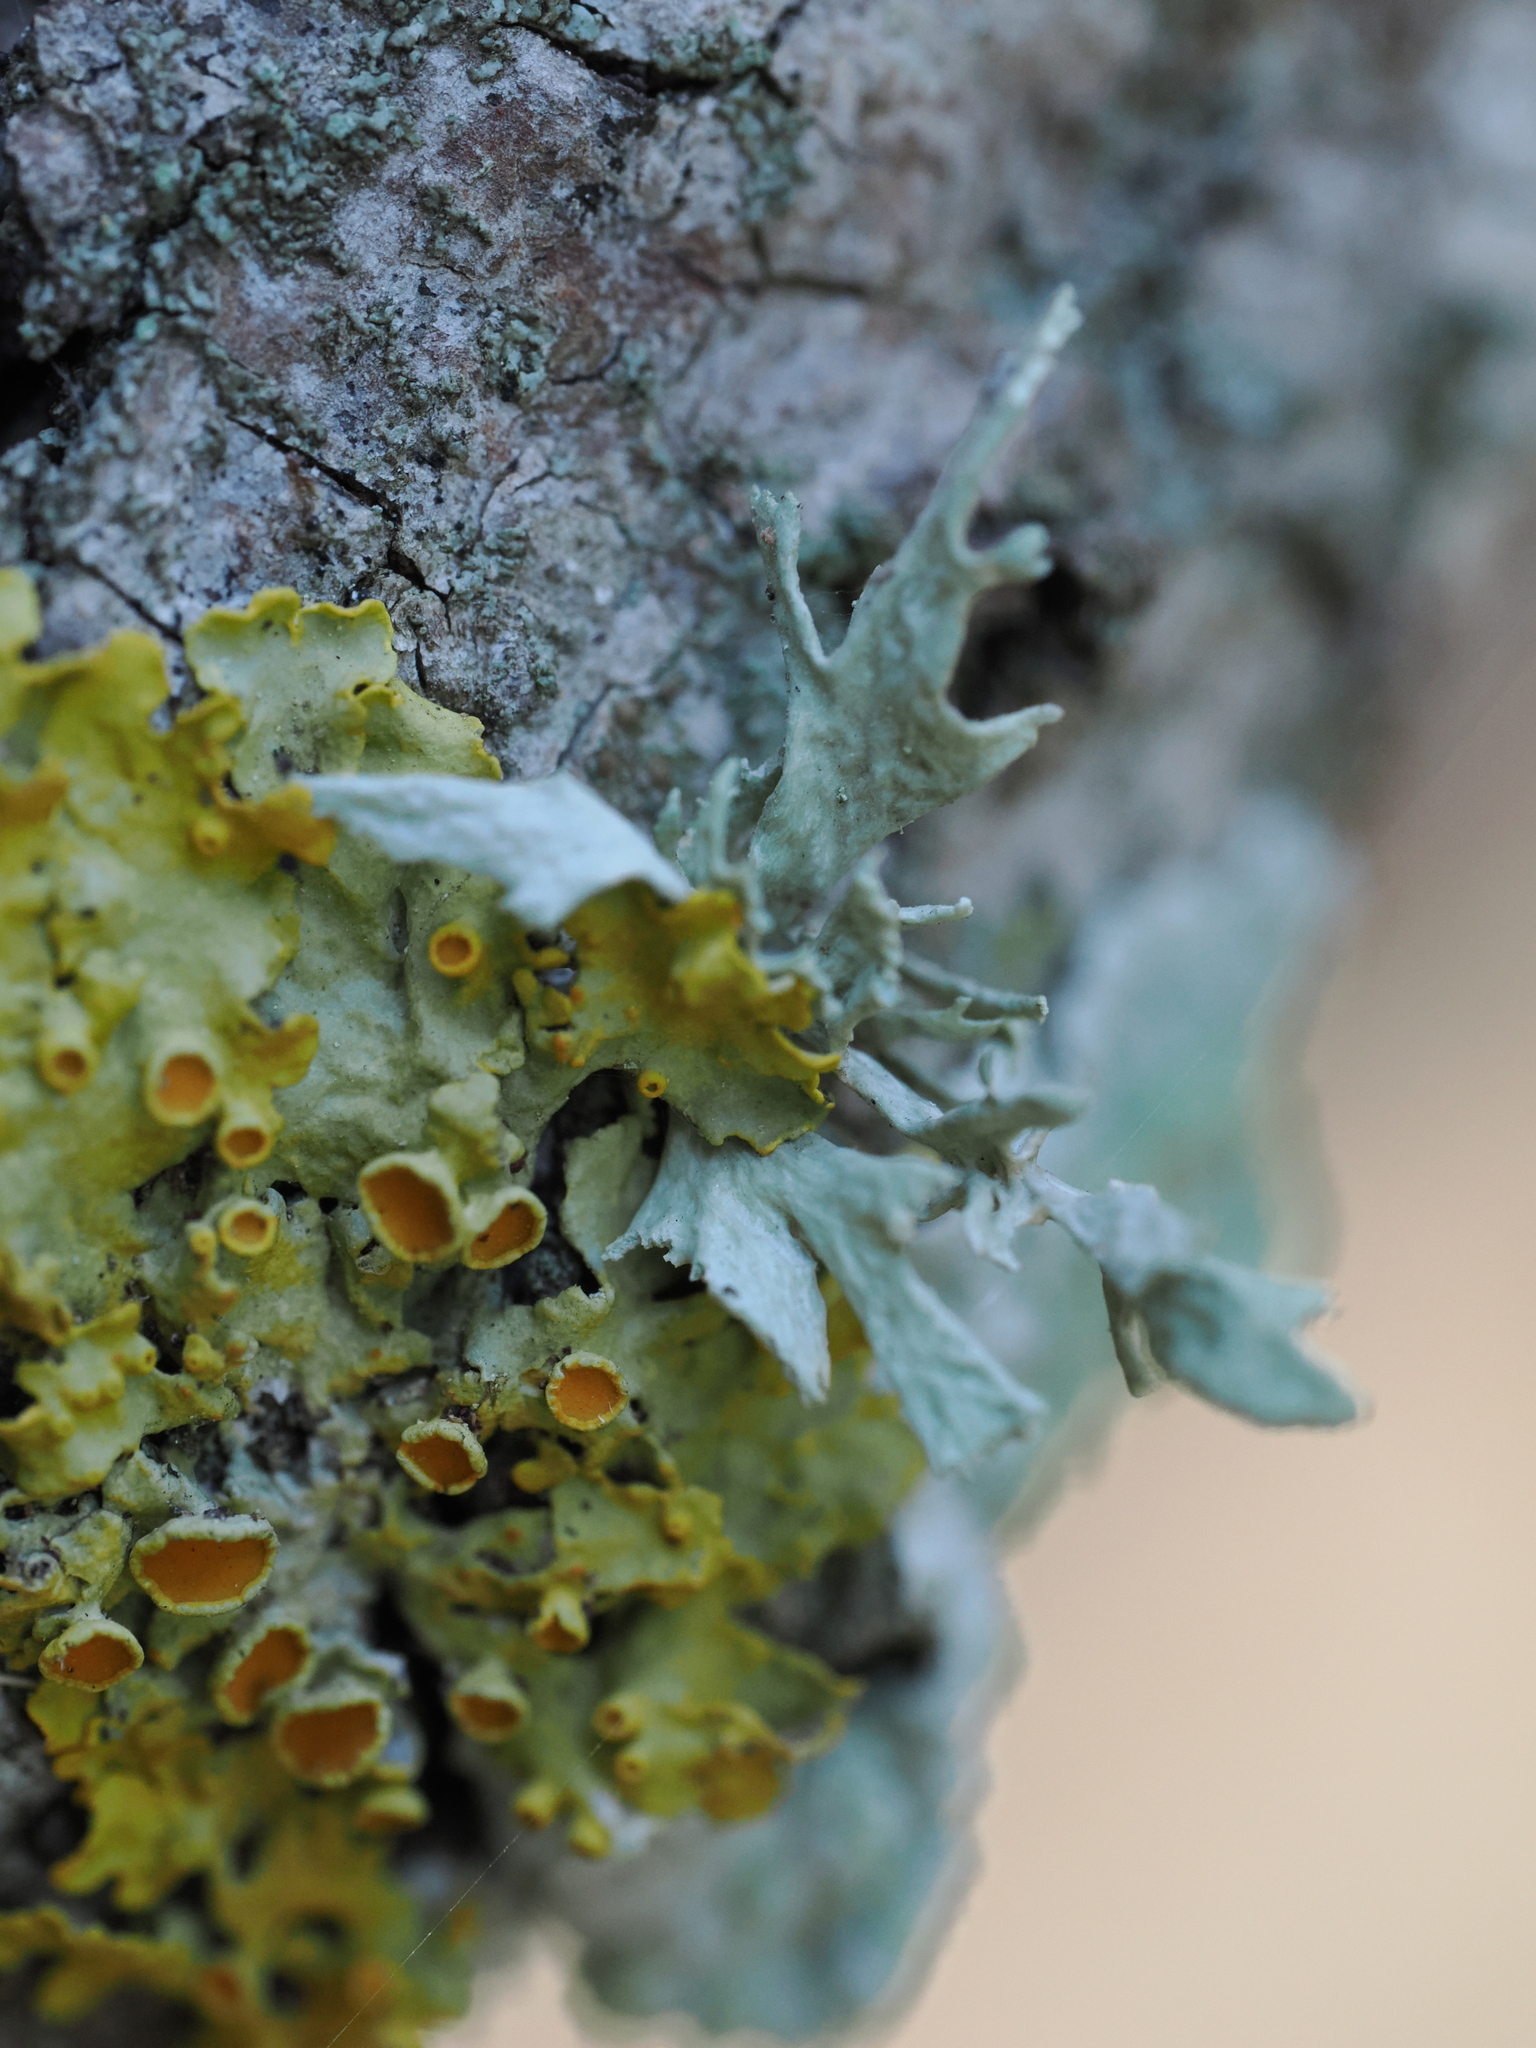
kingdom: Fungi
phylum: Ascomycota
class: Lecanoromycetes
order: Teloschistales
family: Teloschistaceae
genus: Xanthoria
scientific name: Xanthoria parietina
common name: Common orange lichen
